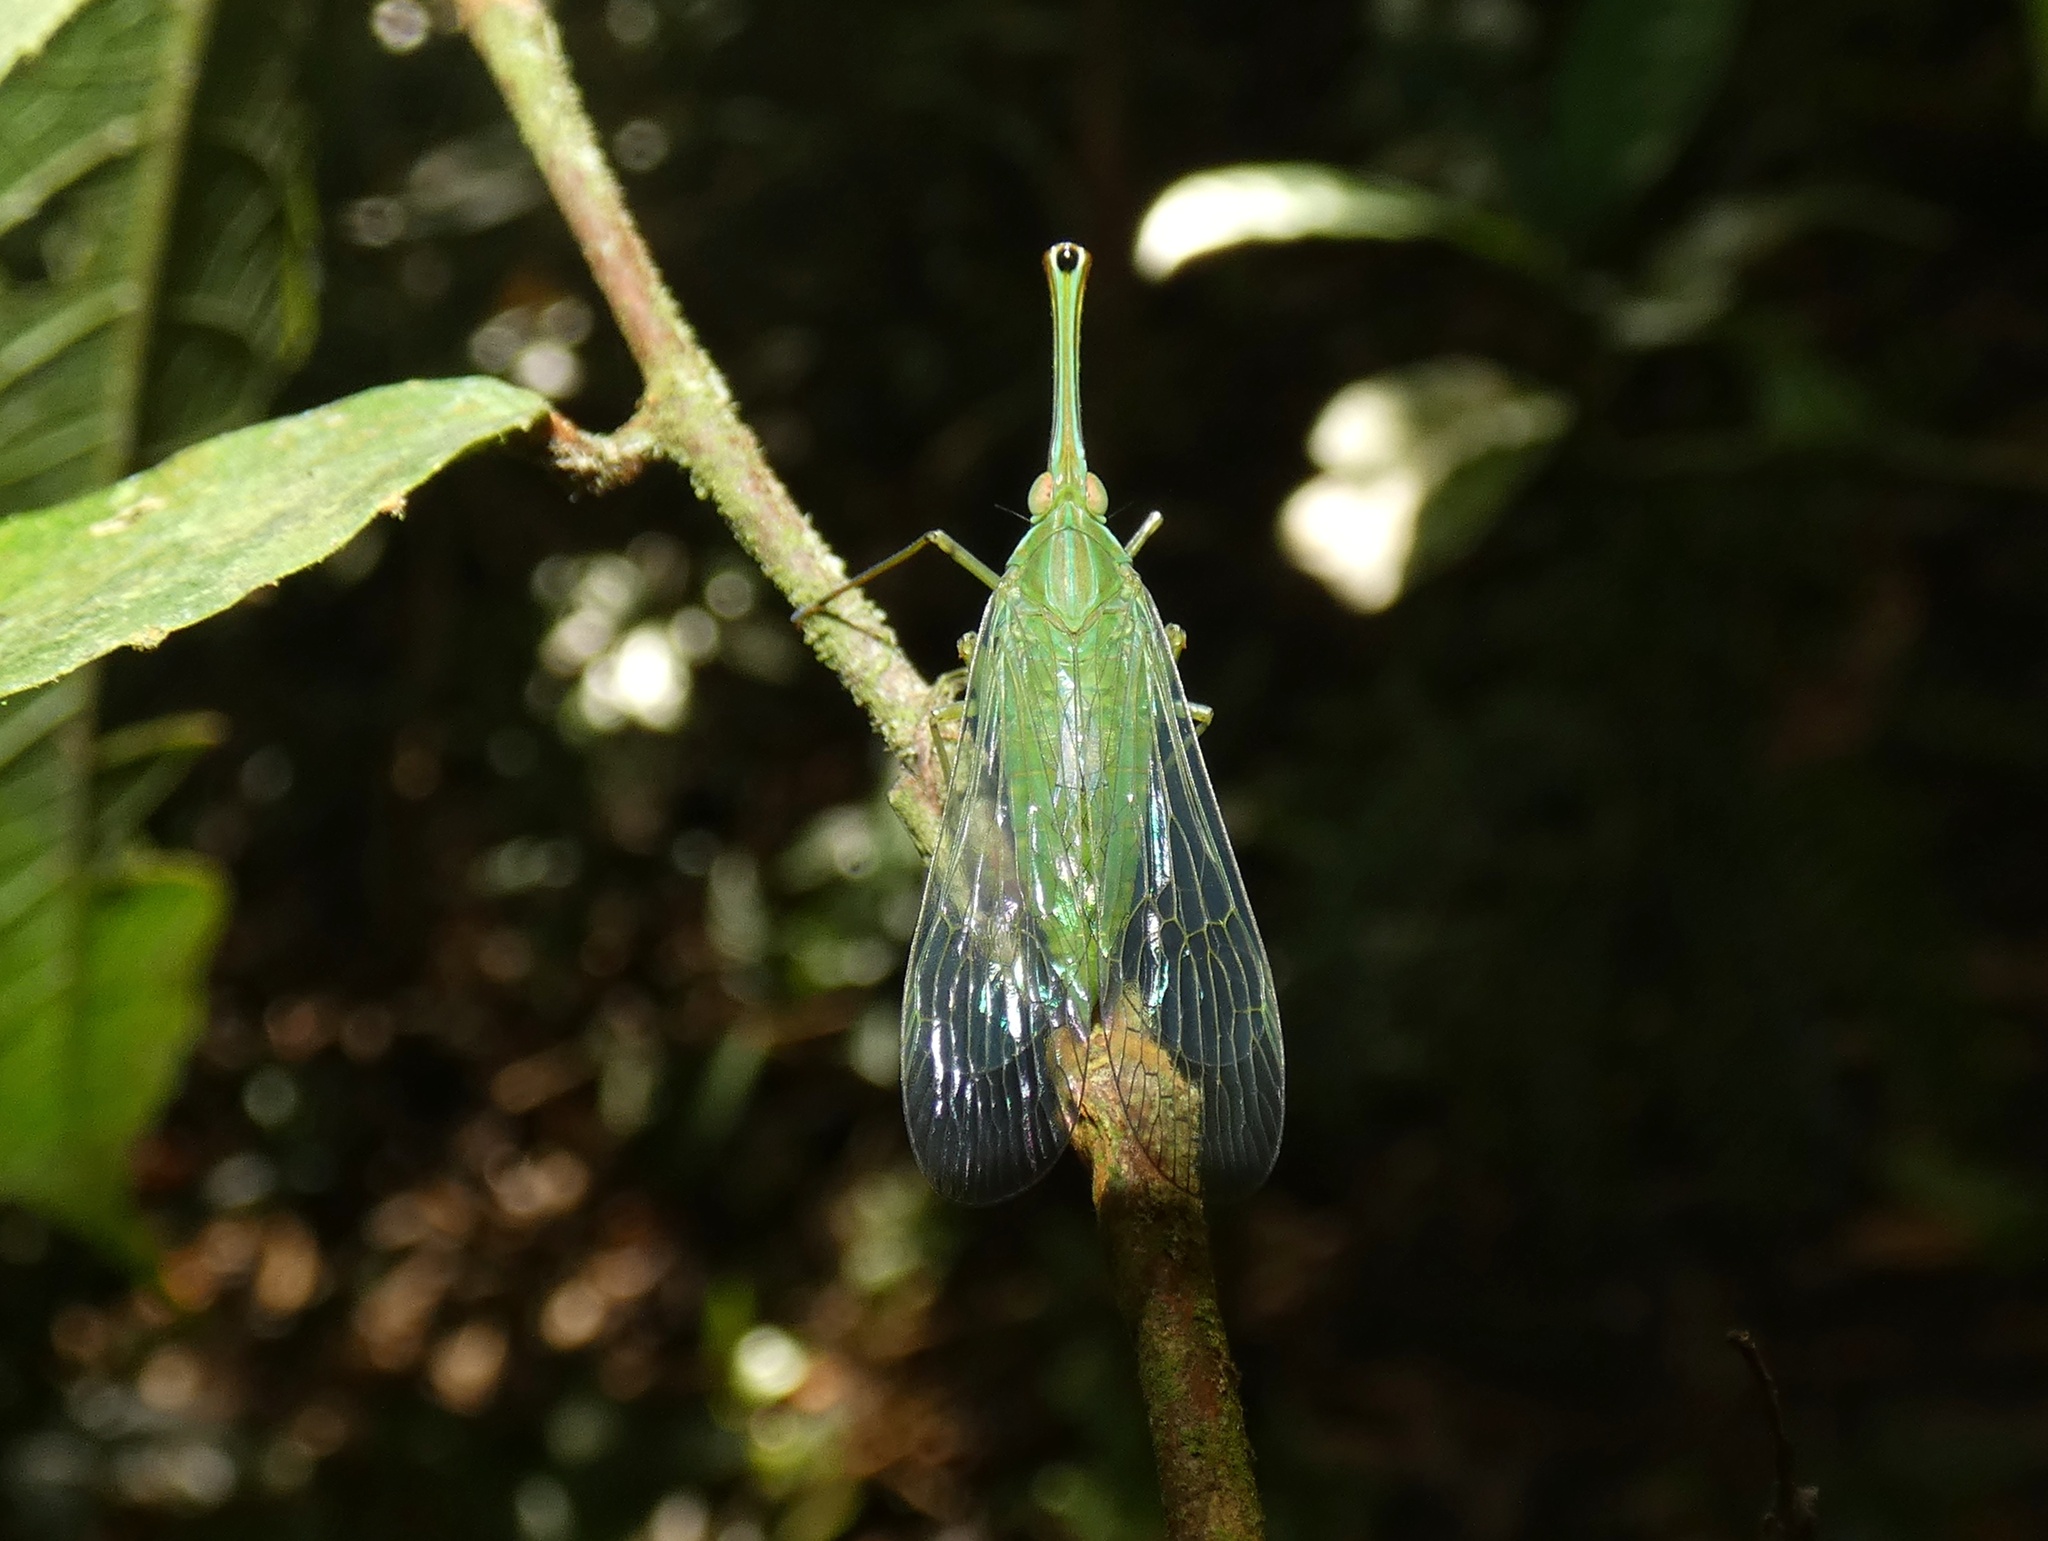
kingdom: Animalia
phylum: Arthropoda
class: Insecta
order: Hemiptera
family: Dictyopharidae
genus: Lappida
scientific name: Lappida ferocula
